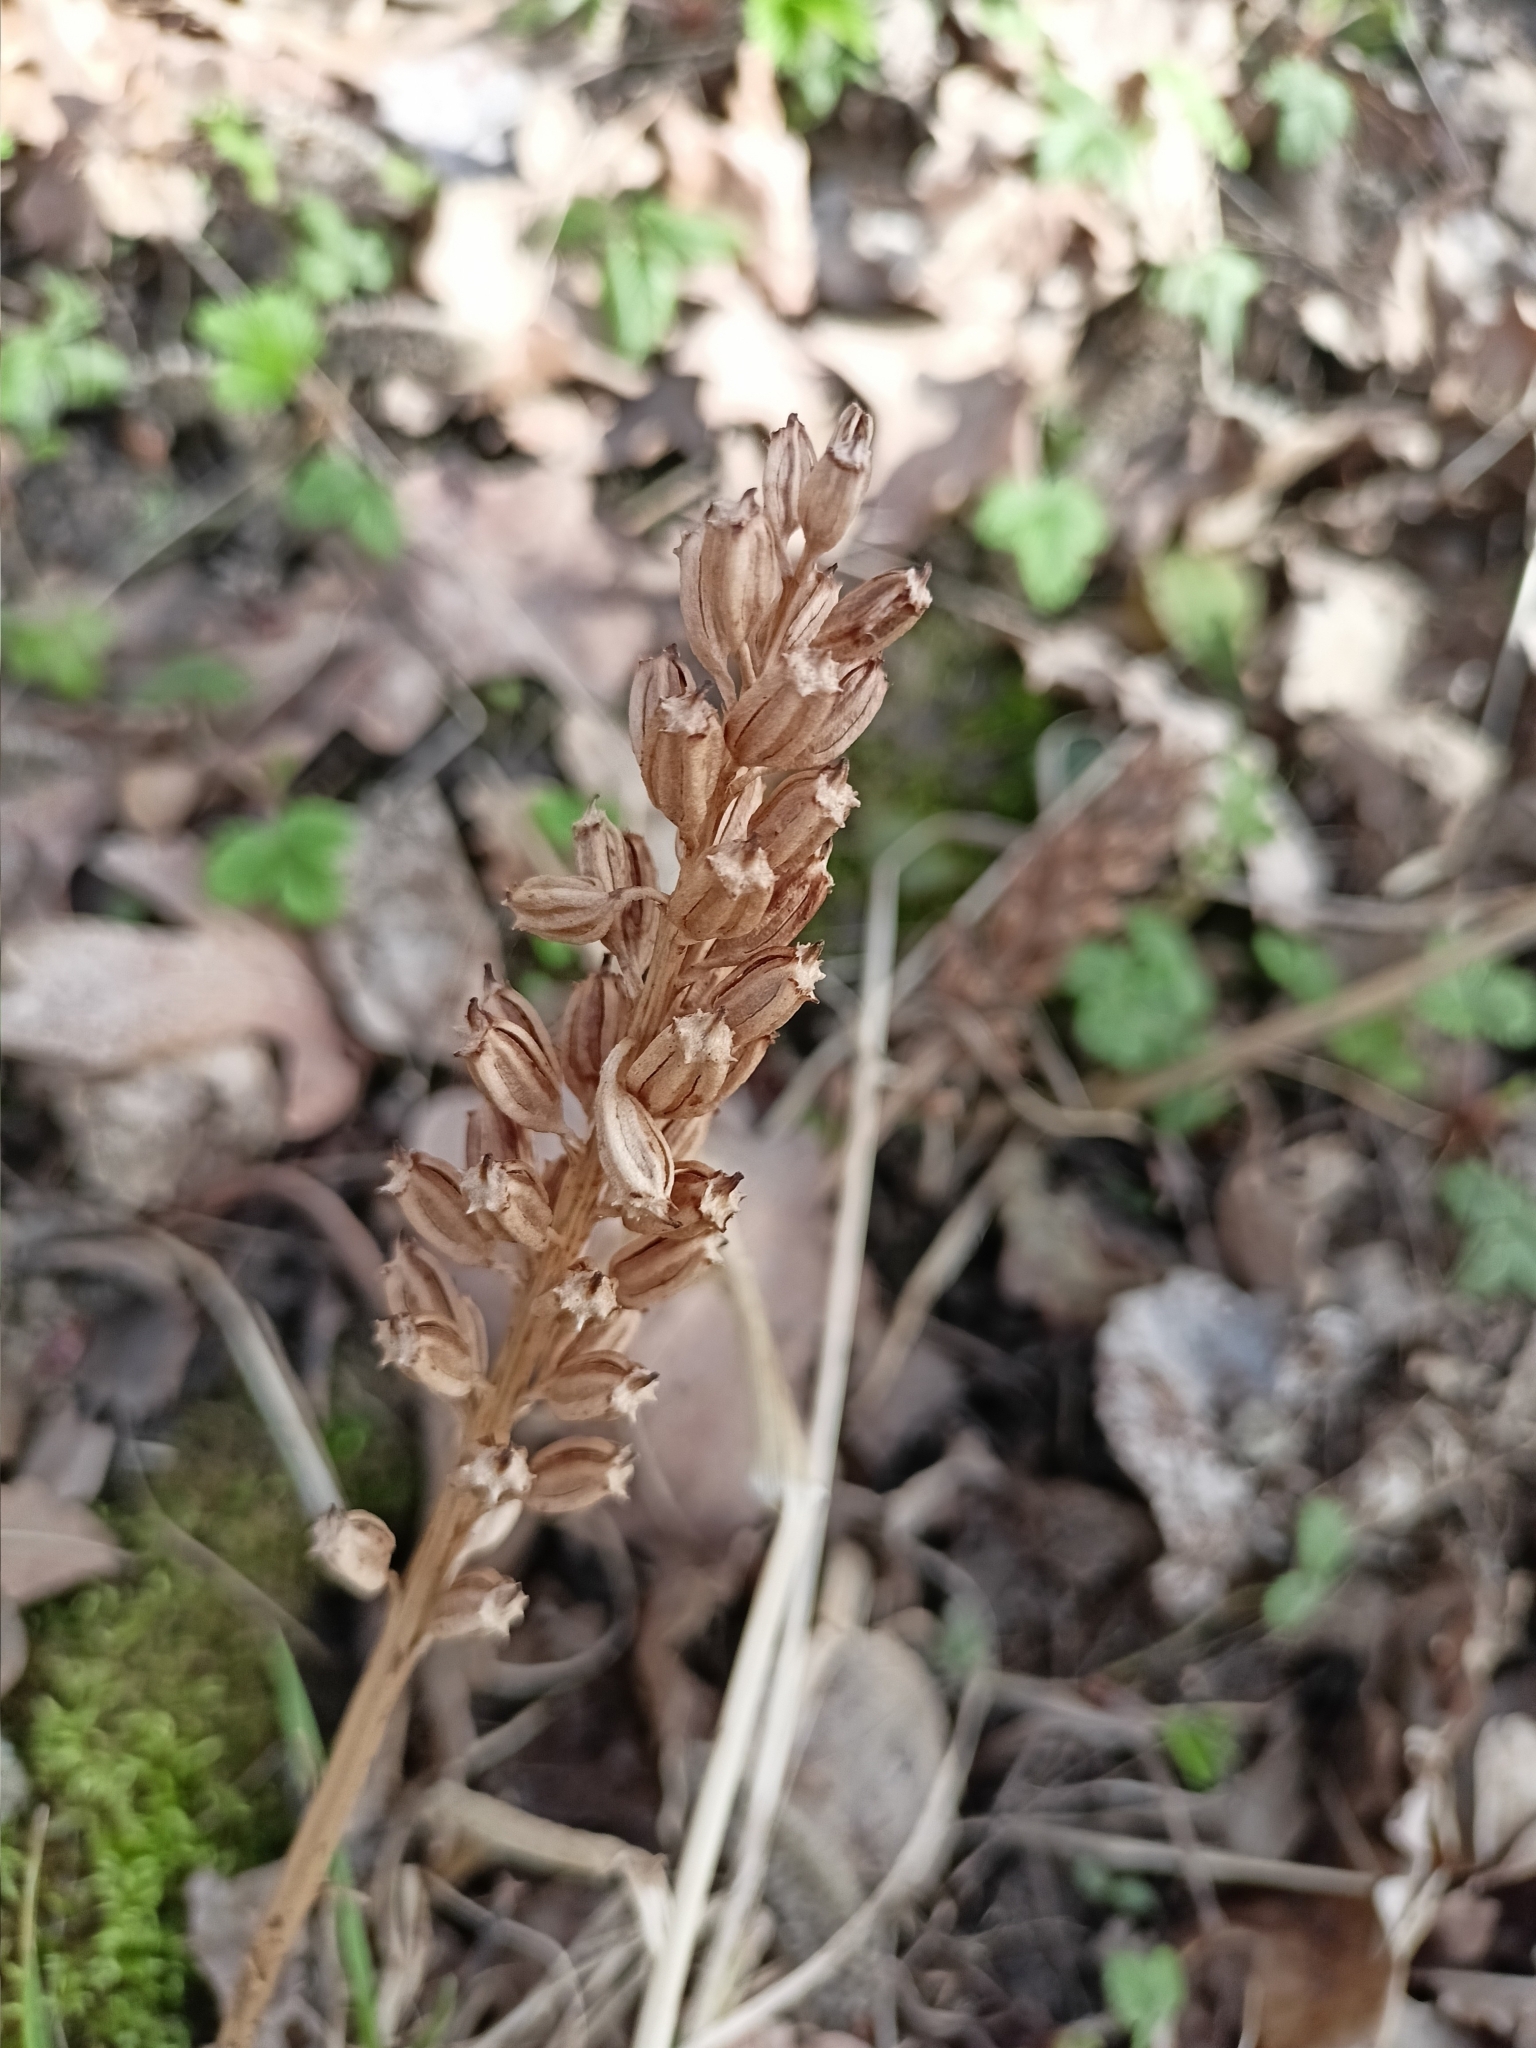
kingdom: Plantae
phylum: Tracheophyta
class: Liliopsida
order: Asparagales
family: Orchidaceae
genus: Neottia
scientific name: Neottia nidus-avis
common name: Bird's-nest orchid
